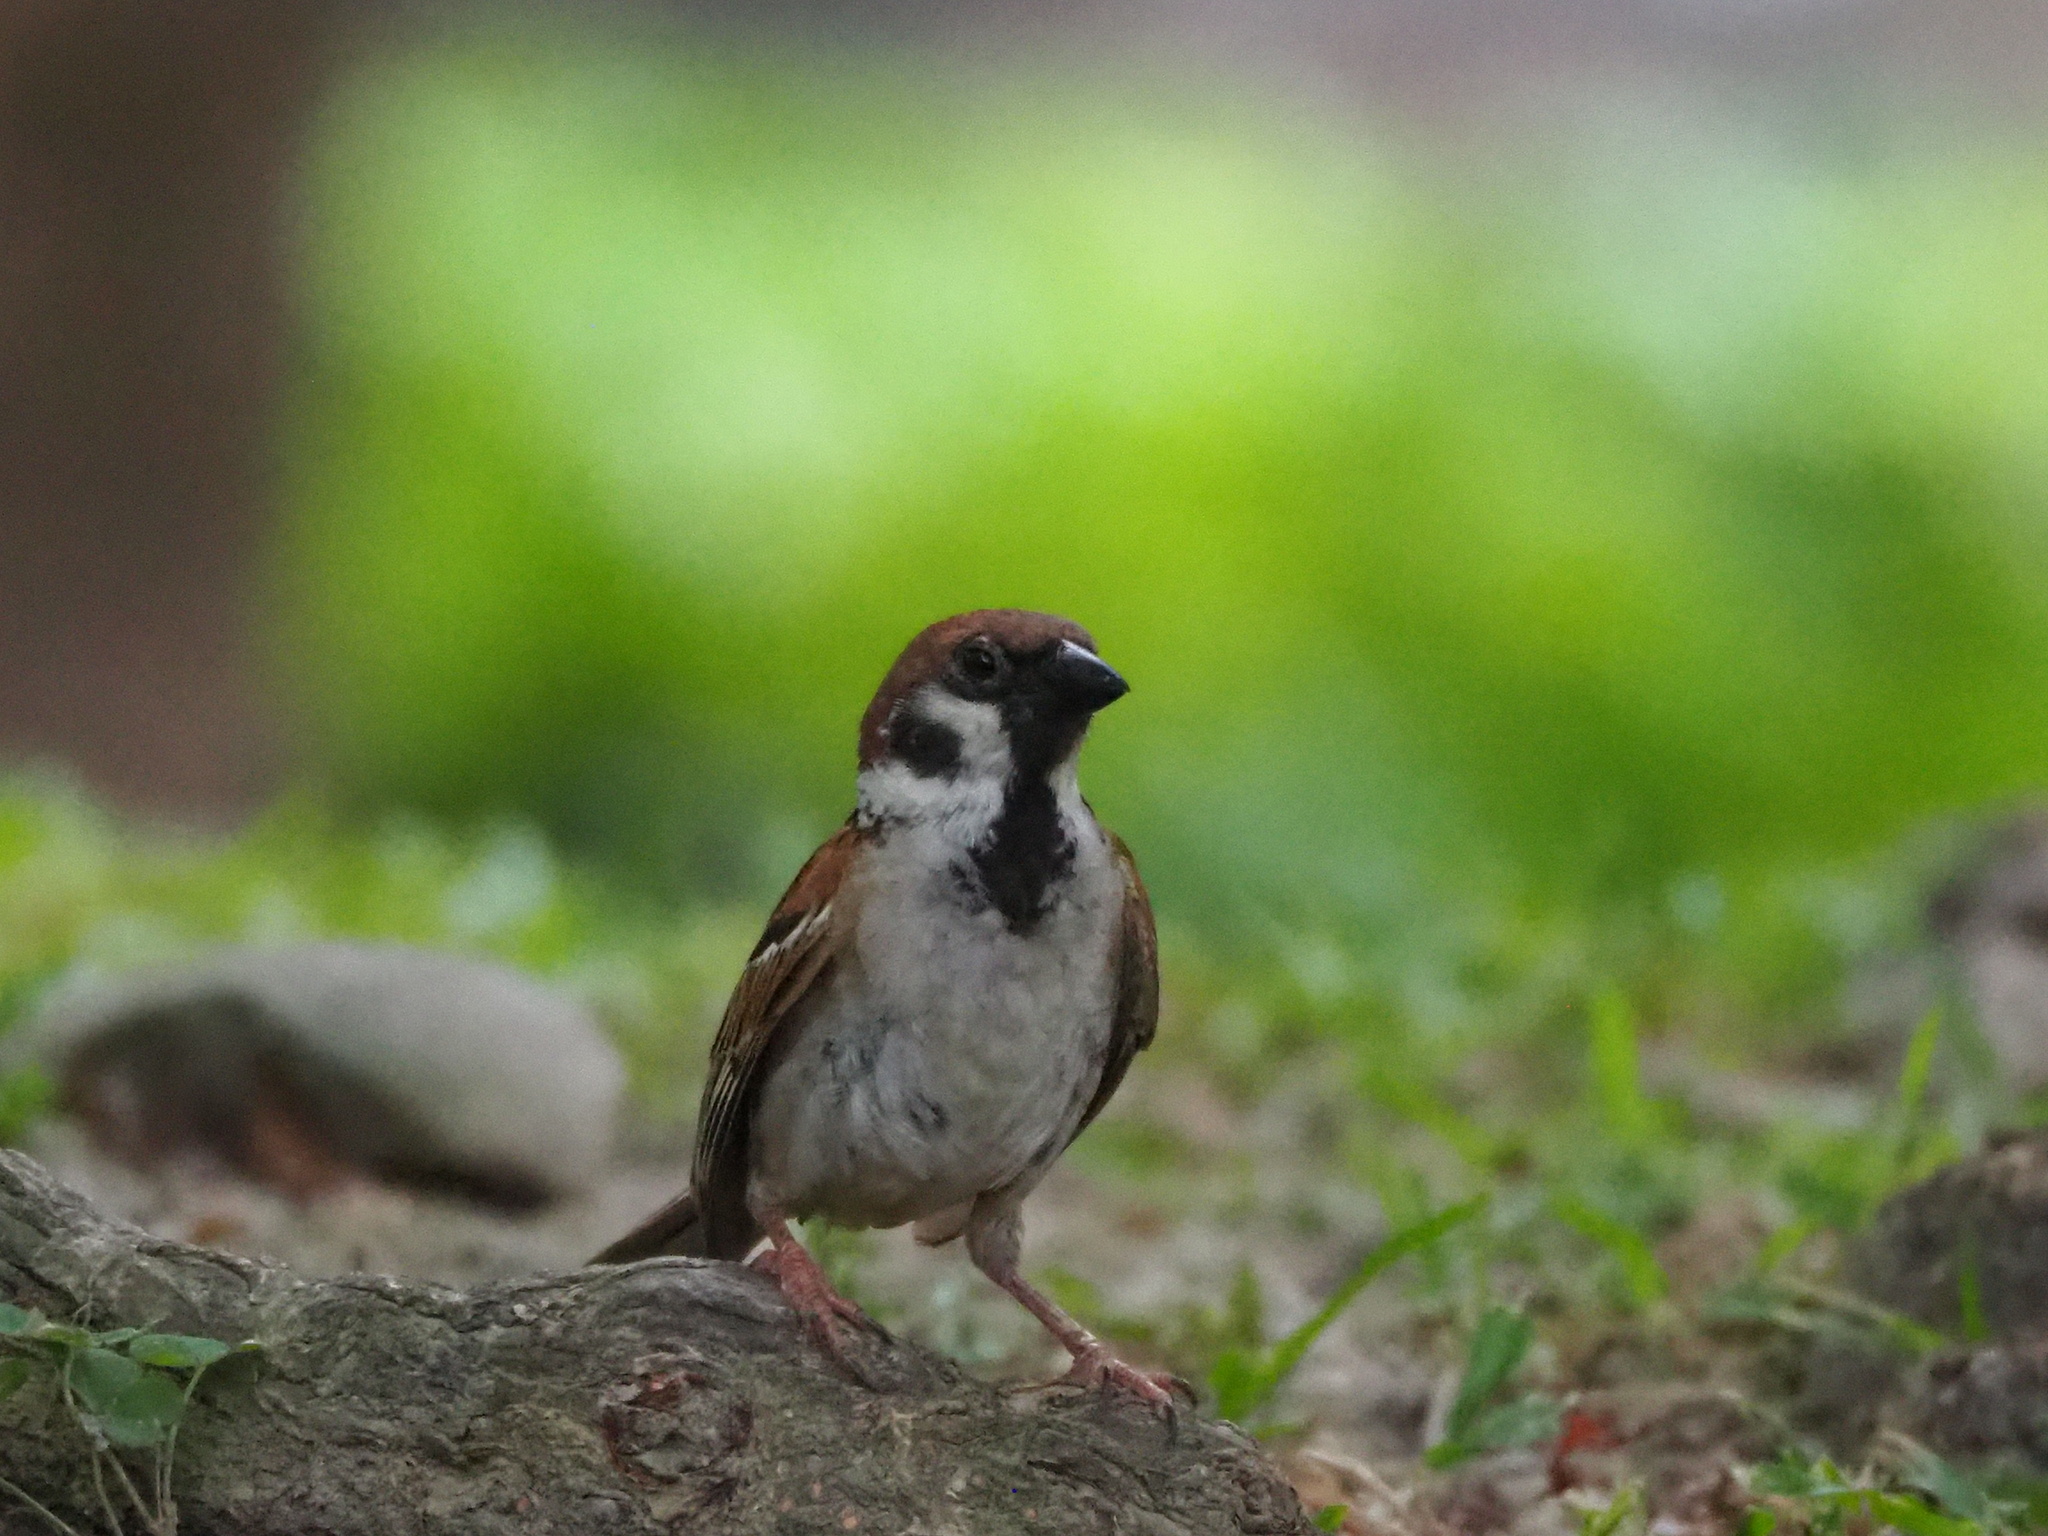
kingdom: Animalia
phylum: Chordata
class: Aves
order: Passeriformes
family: Passeridae
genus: Passer
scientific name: Passer montanus
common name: Eurasian tree sparrow
